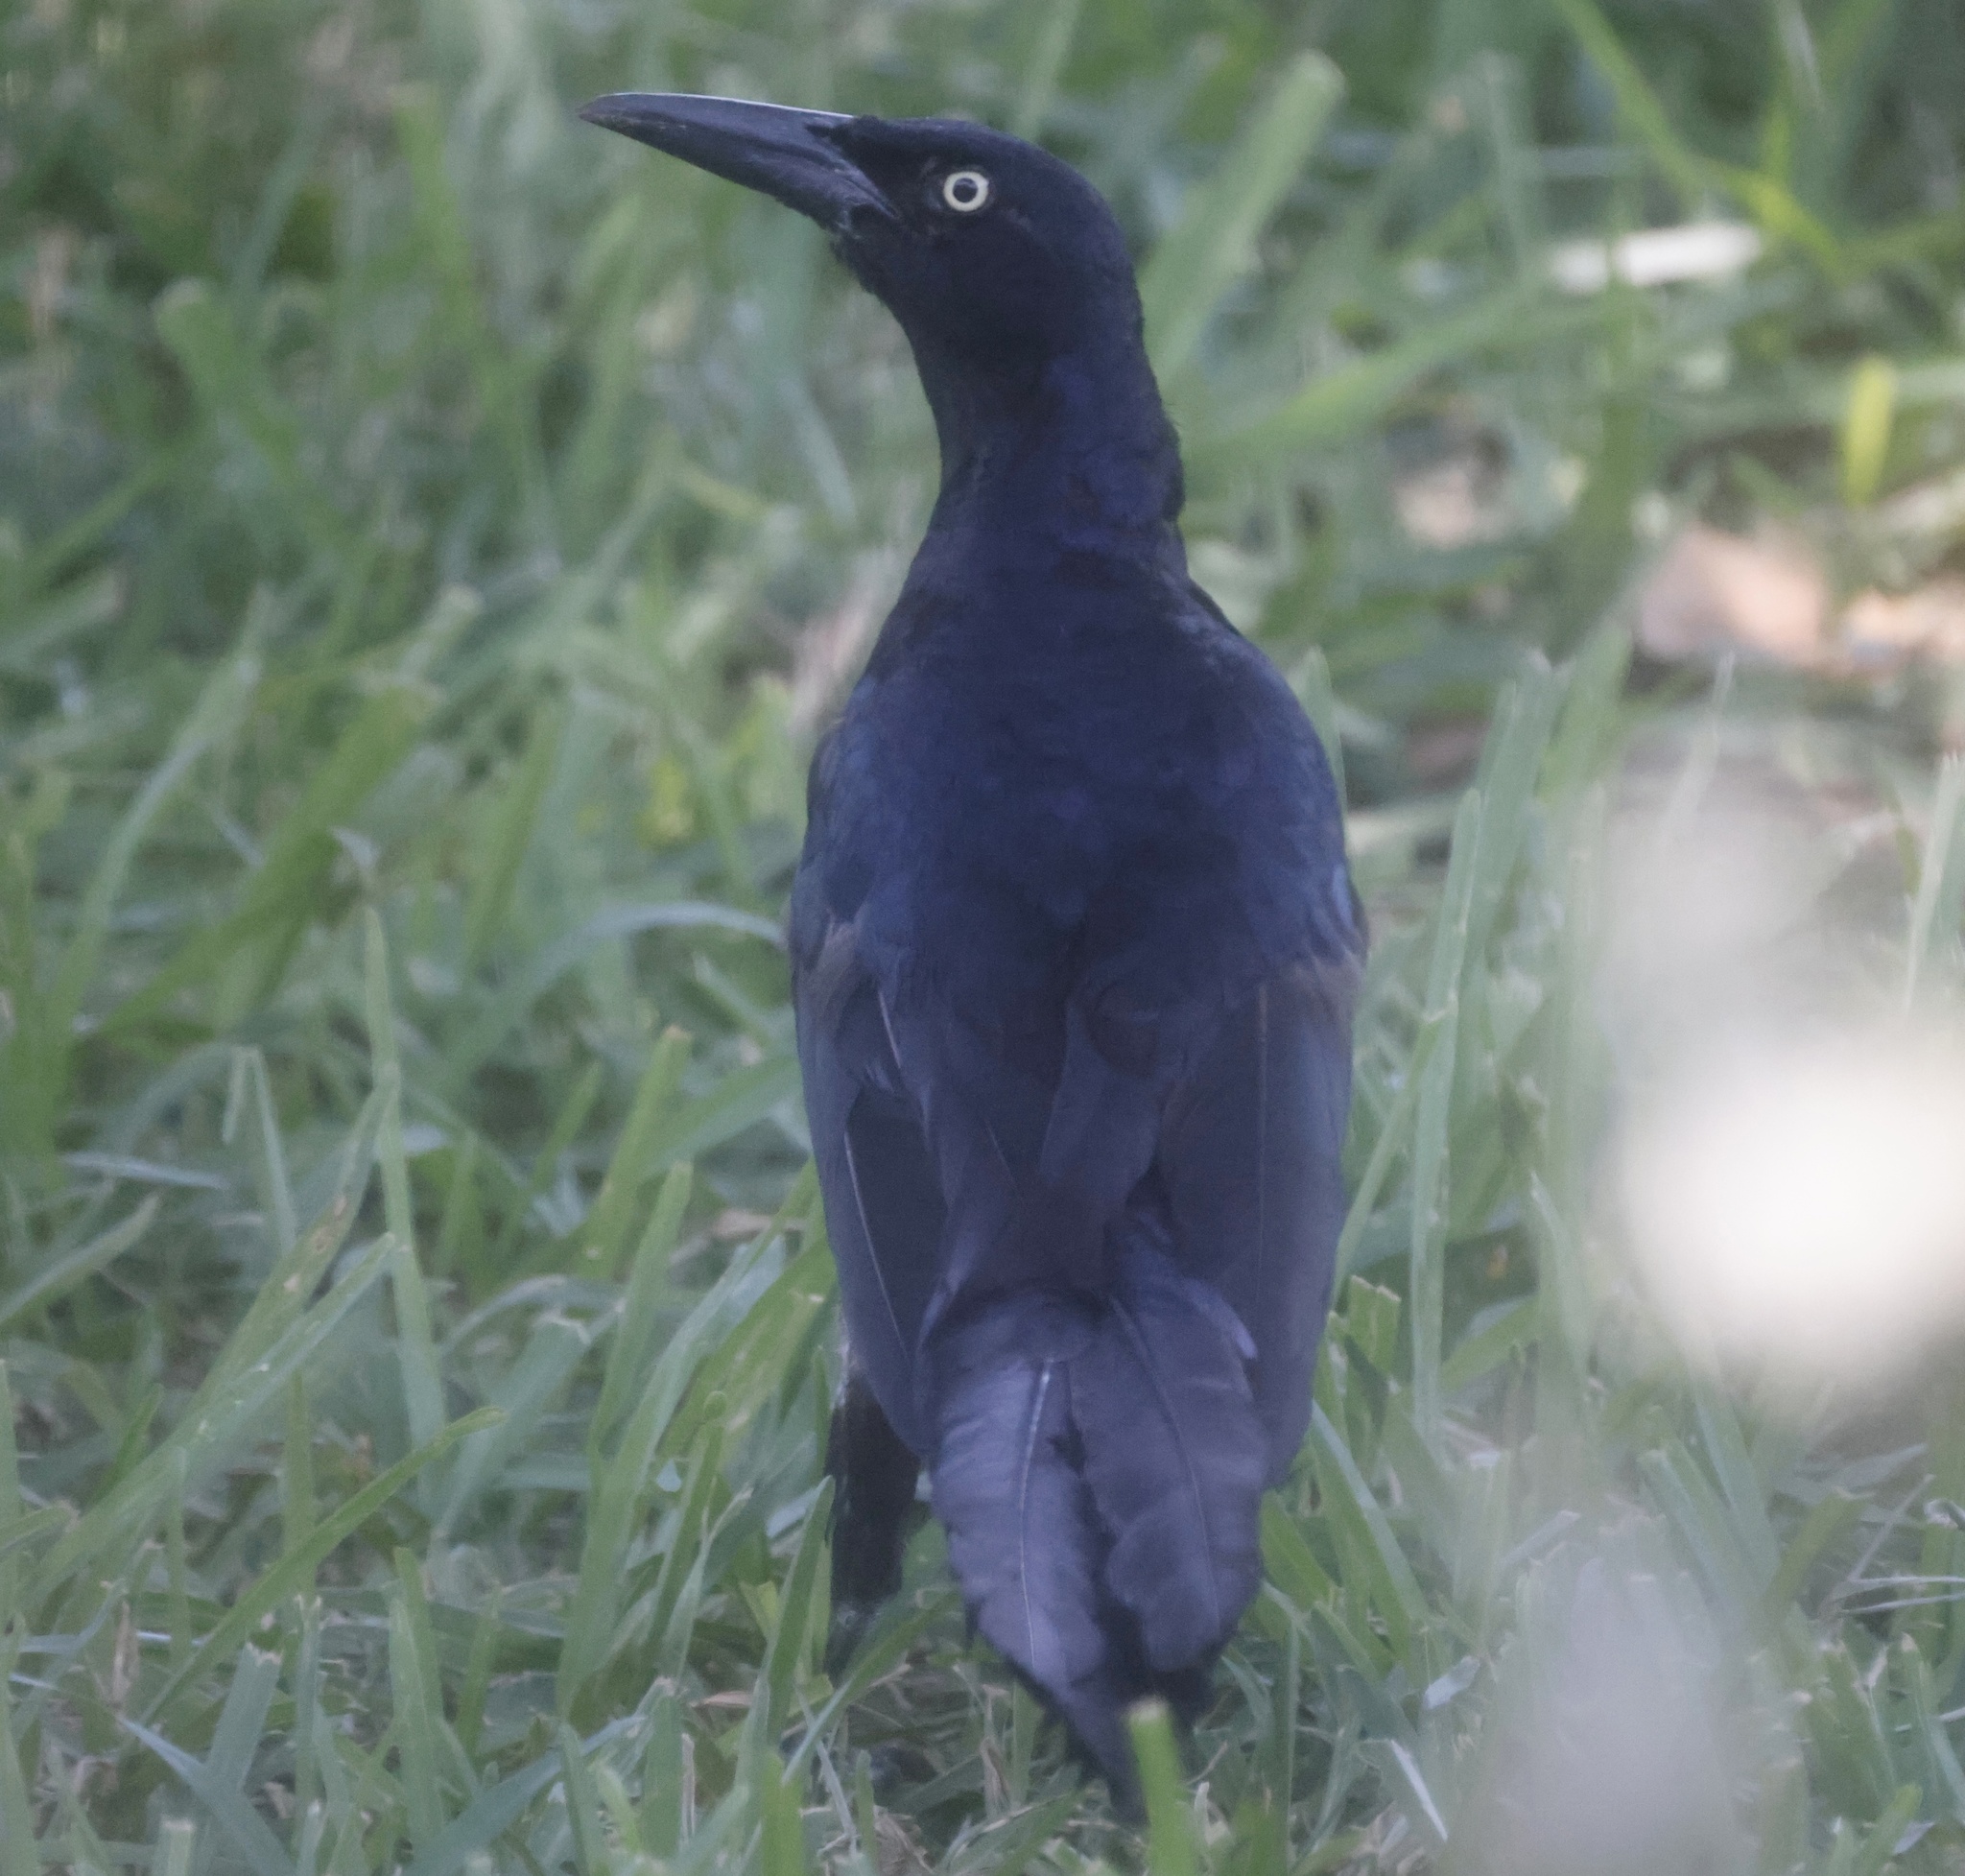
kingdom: Animalia
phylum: Chordata
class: Aves
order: Passeriformes
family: Icteridae
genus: Quiscalus
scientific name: Quiscalus mexicanus
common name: Great-tailed grackle
